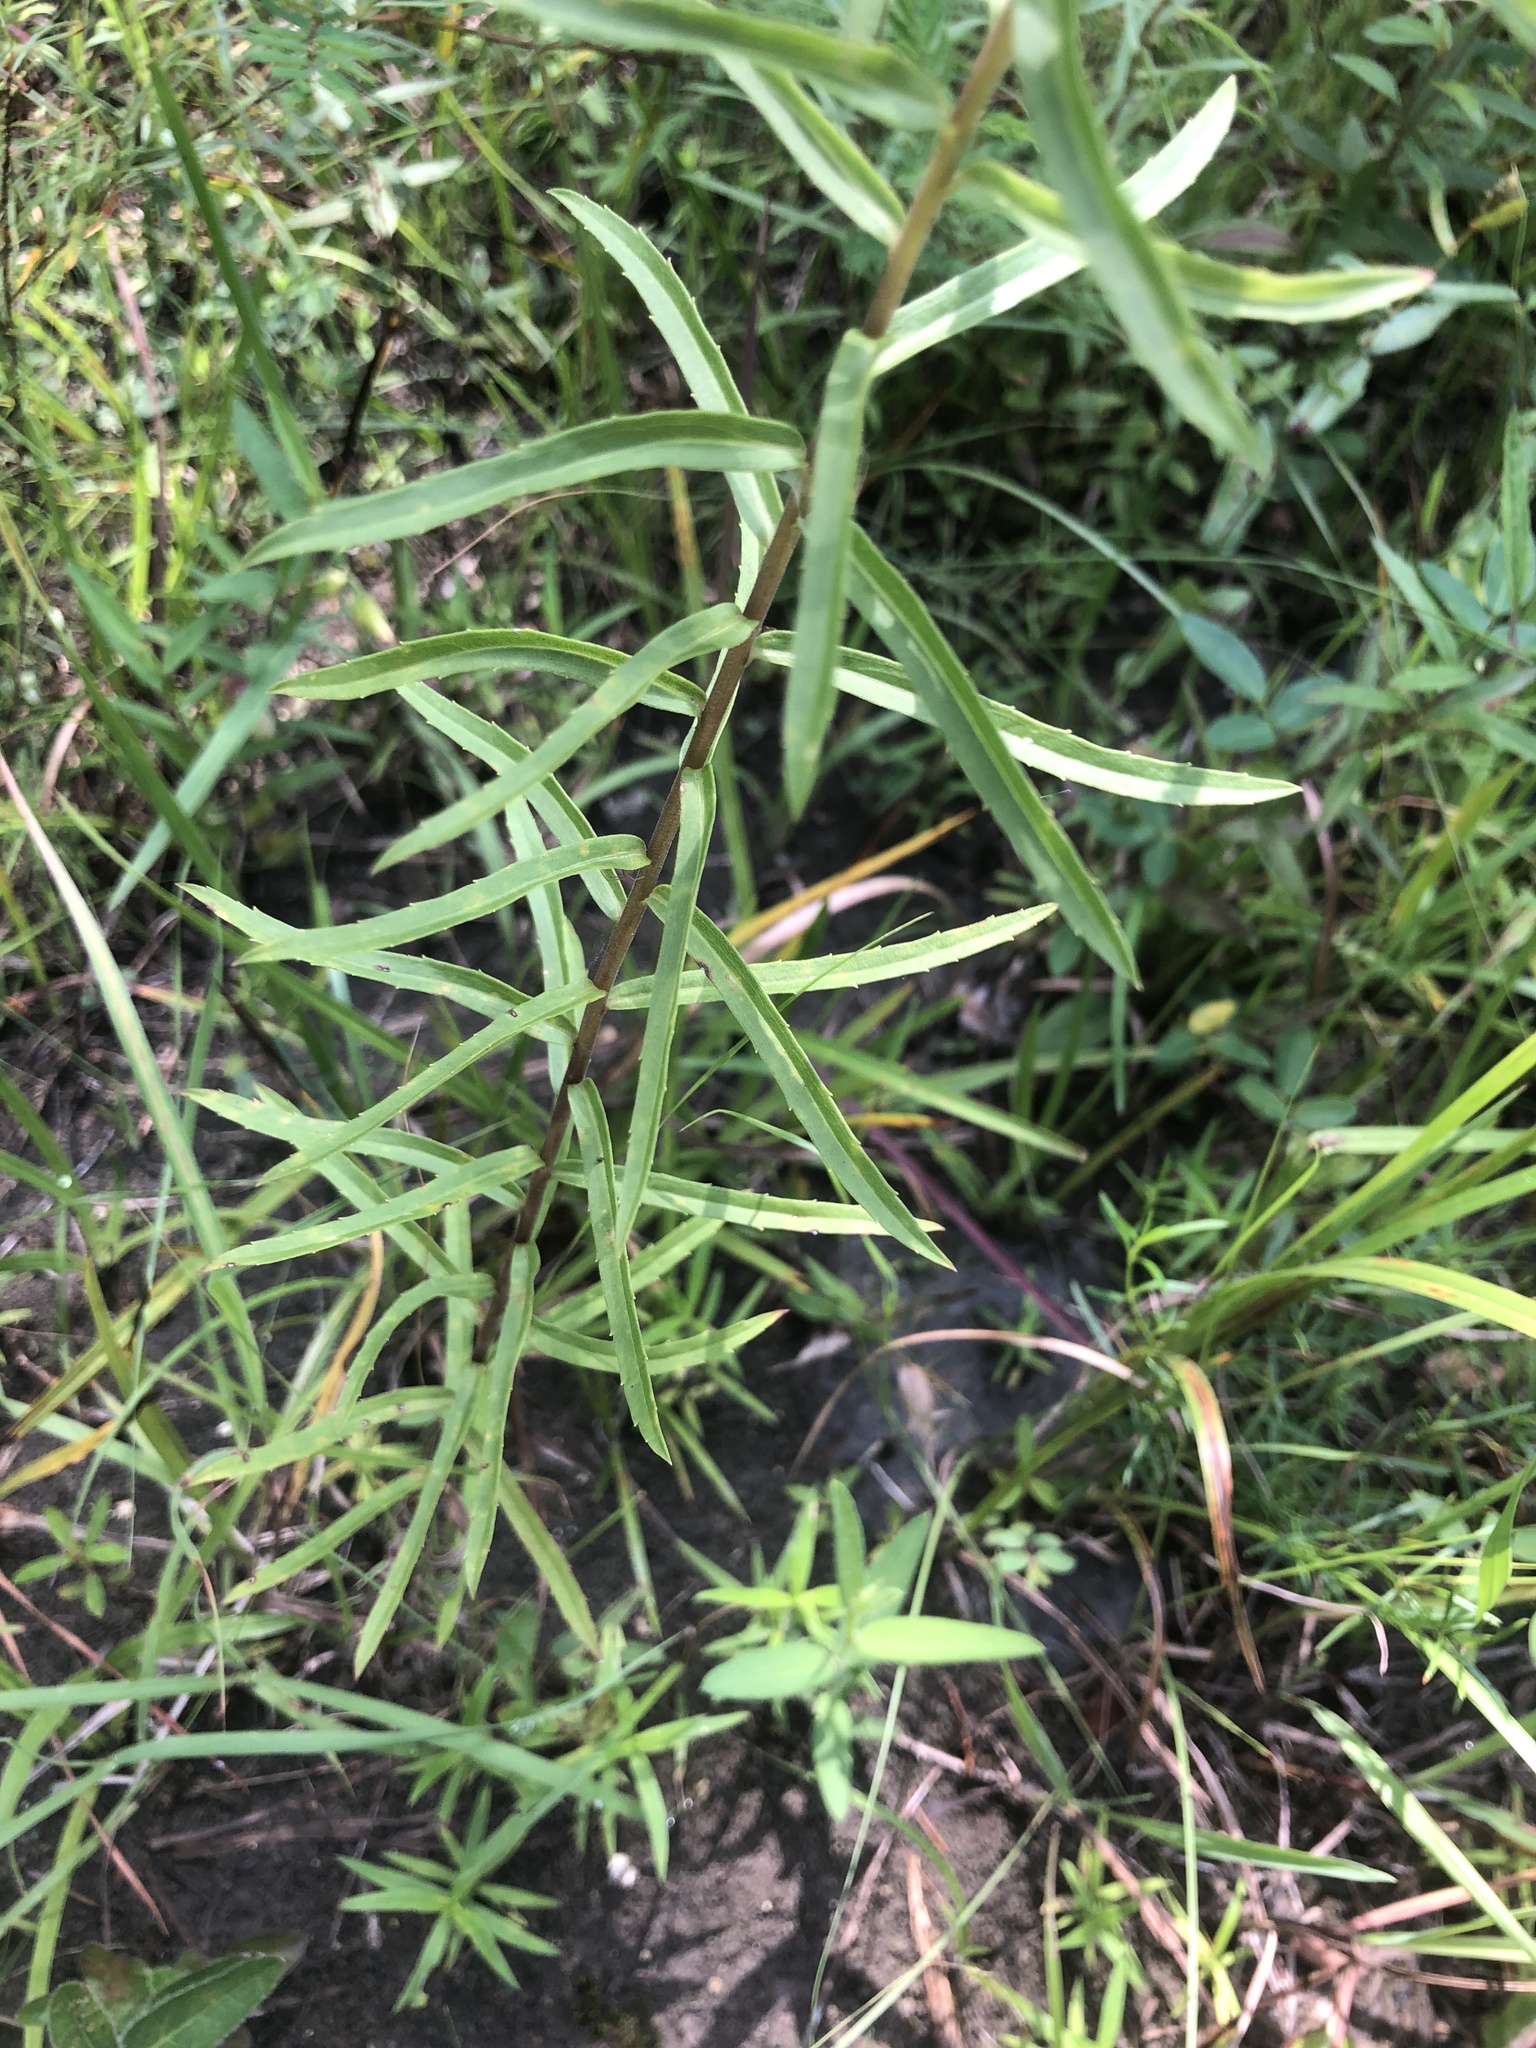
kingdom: Plantae
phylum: Tracheophyta
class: Magnoliopsida
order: Asterales
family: Asteraceae
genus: Solidago
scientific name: Solidago tortifolia
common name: Twisted-leaf goldenrod
